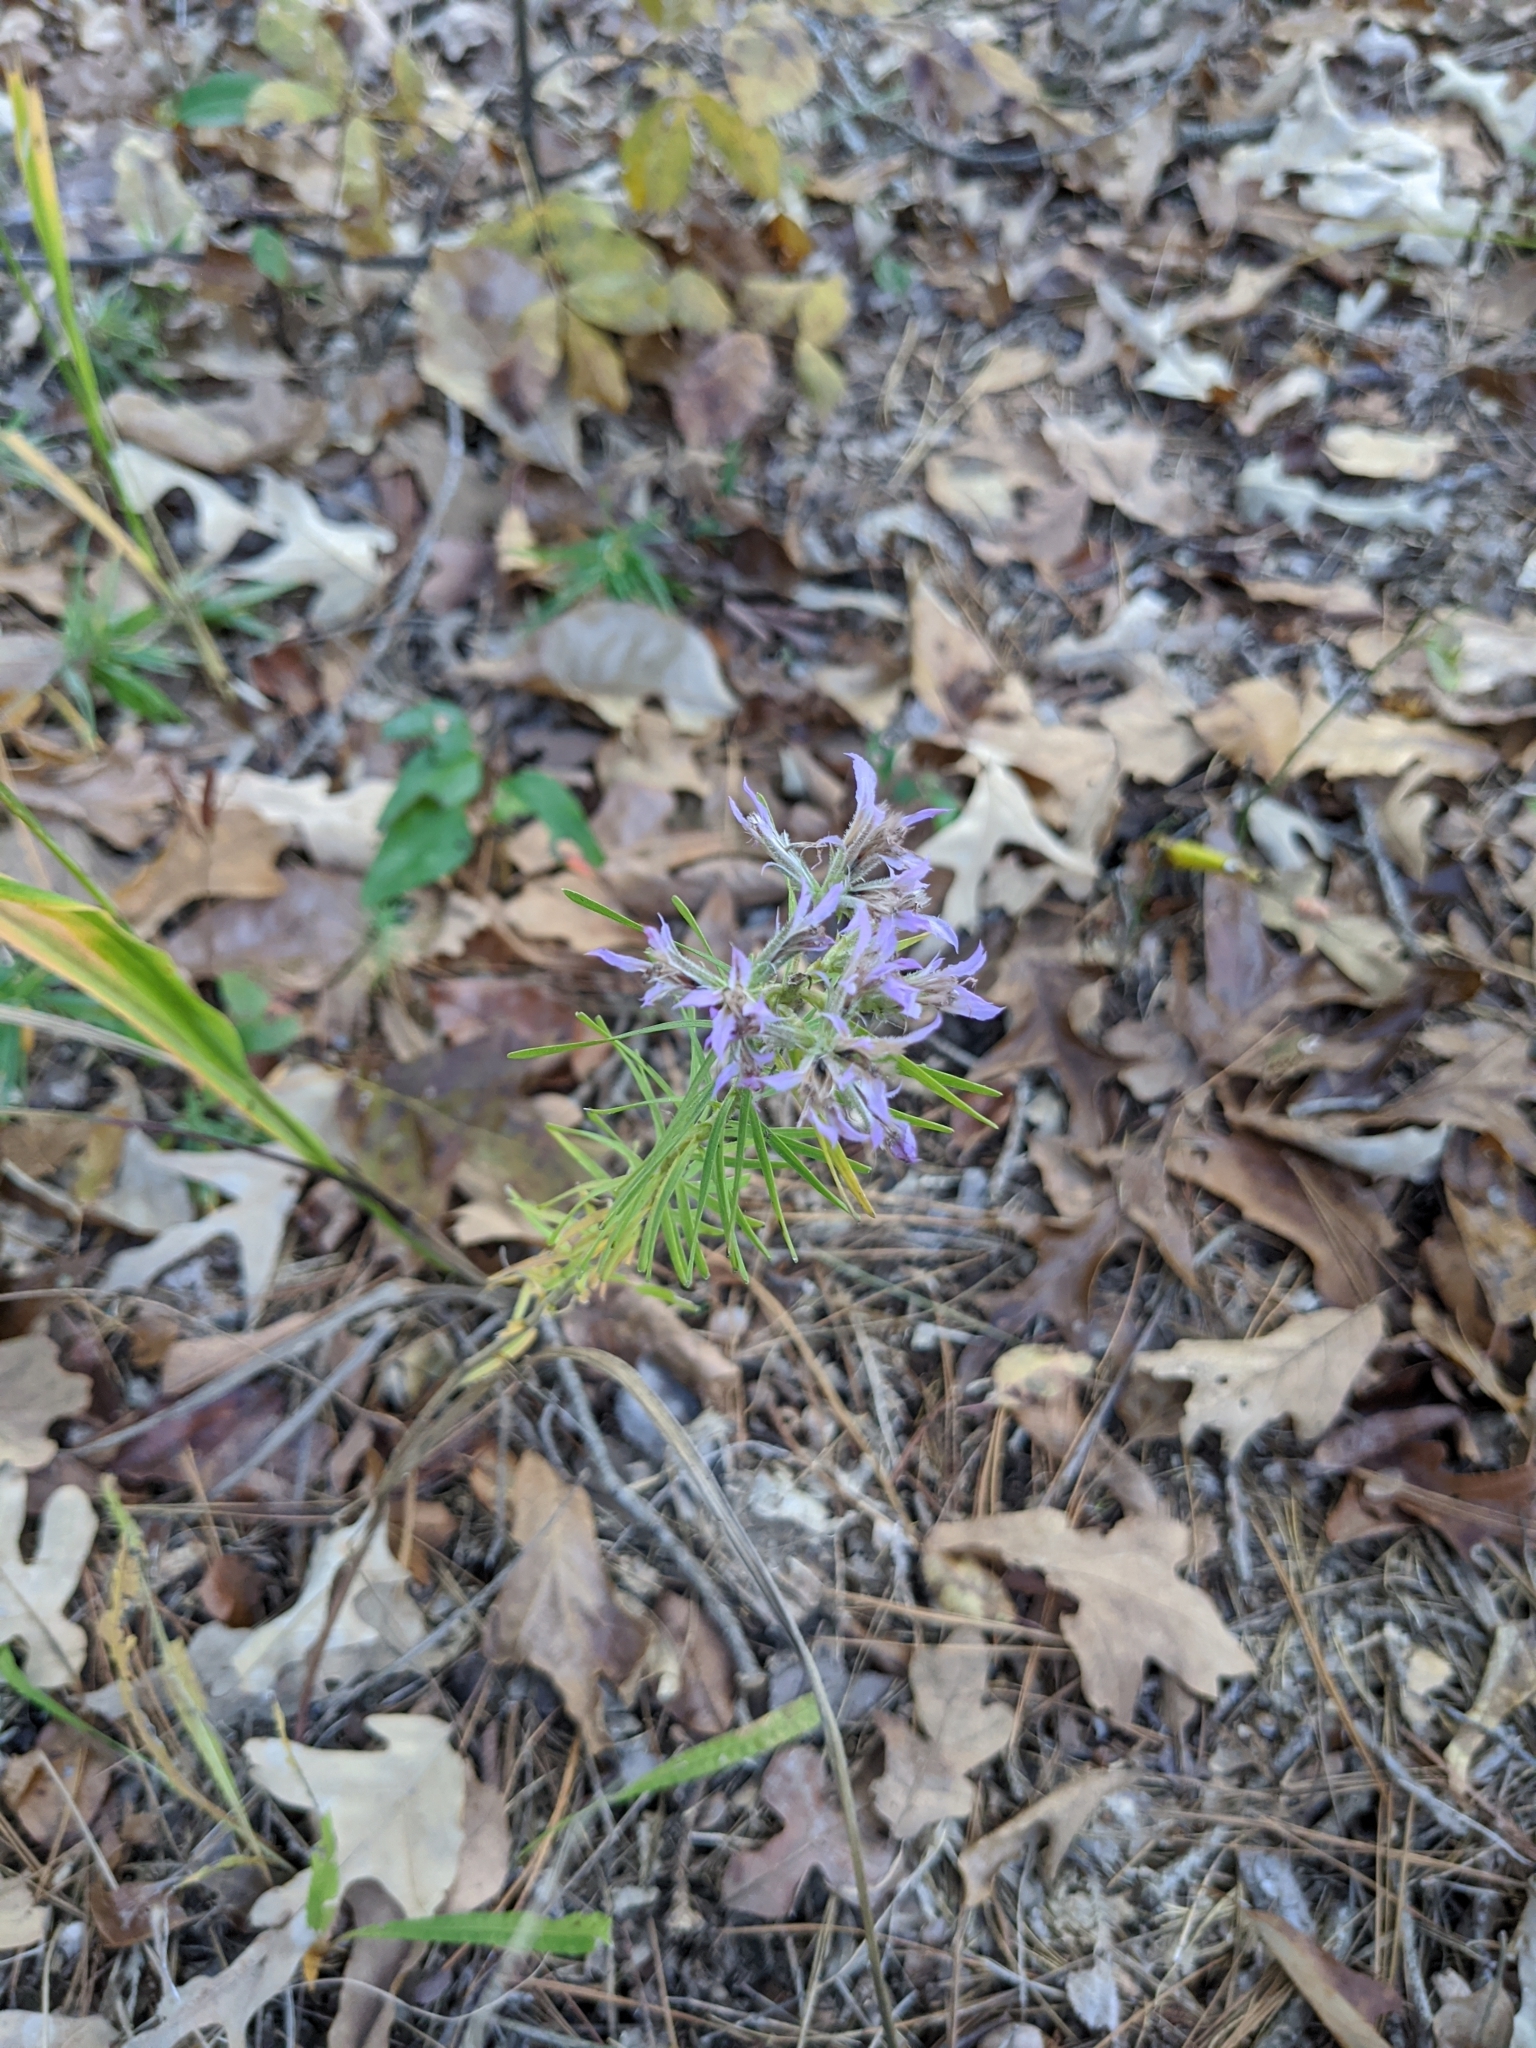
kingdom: Plantae
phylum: Tracheophyta
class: Magnoliopsida
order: Asterales
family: Asteraceae
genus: Liatris
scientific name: Liatris hesperelegans
